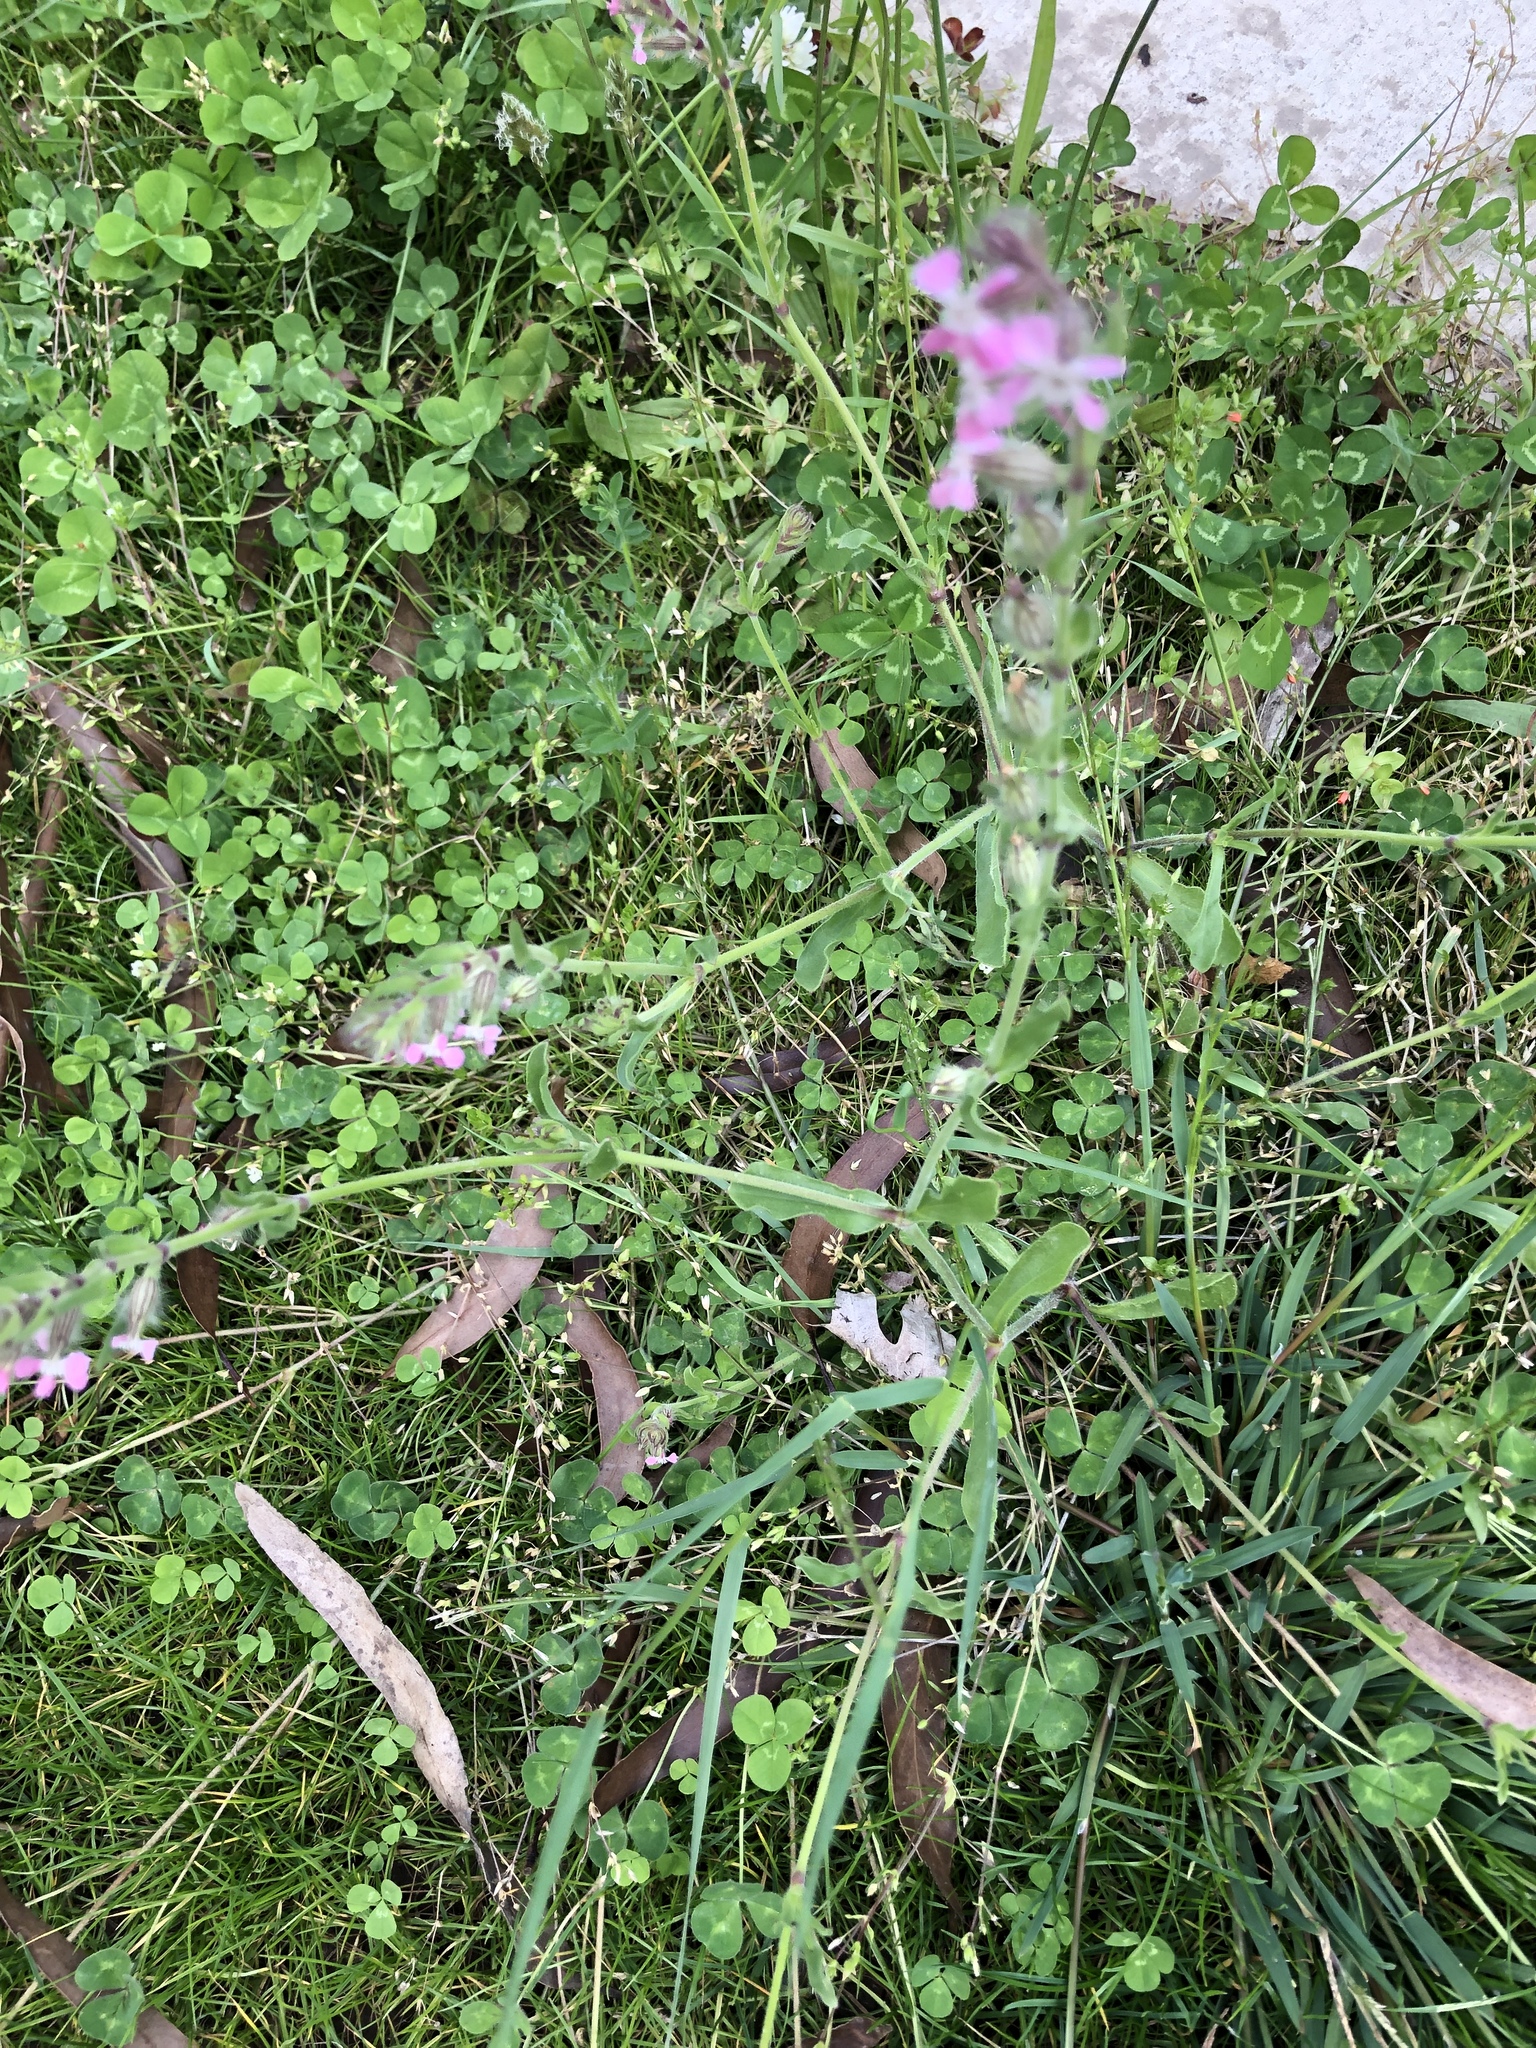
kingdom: Plantae
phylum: Tracheophyta
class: Magnoliopsida
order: Caryophyllales
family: Caryophyllaceae
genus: Silene
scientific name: Silene gallica
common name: Small-flowered catchfly
